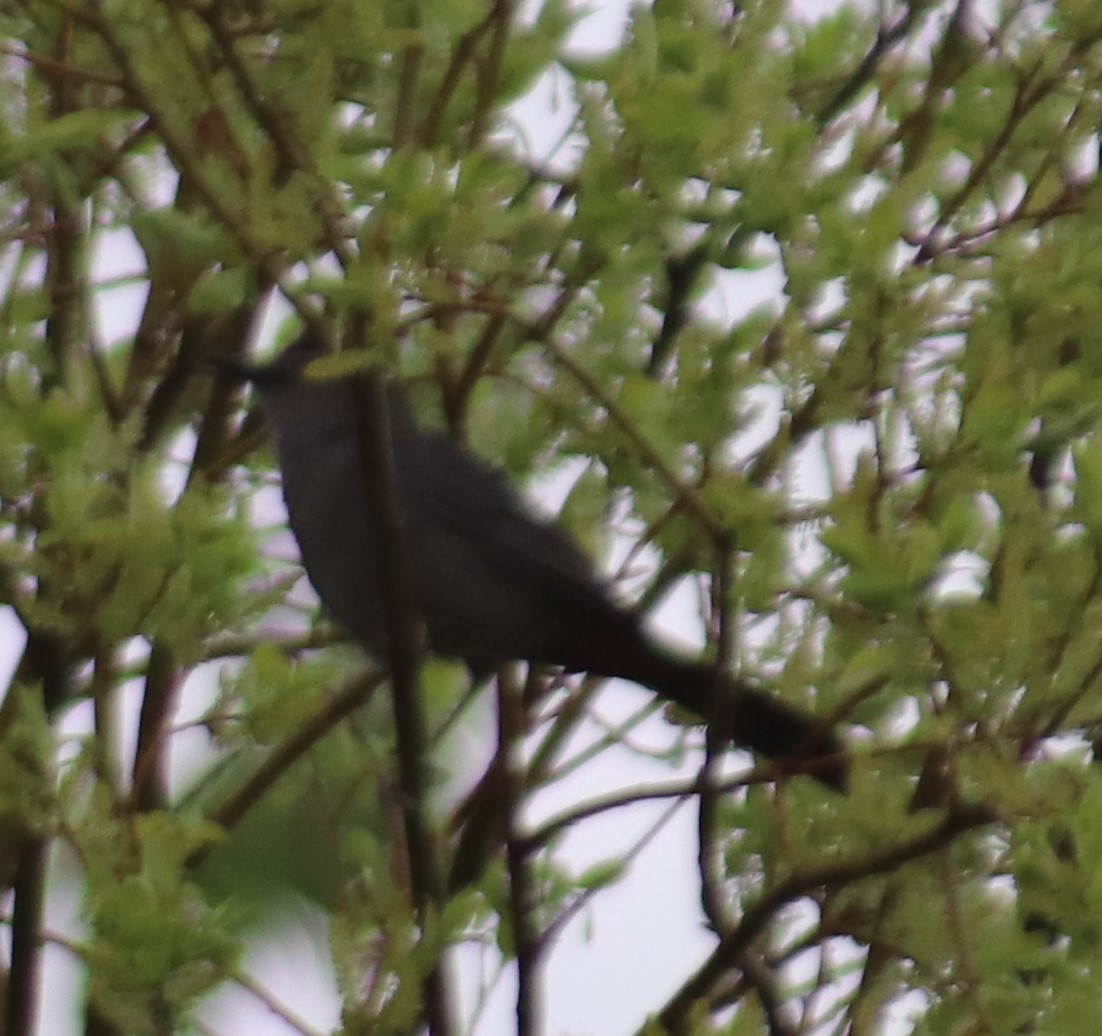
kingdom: Animalia
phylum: Chordata
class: Aves
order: Passeriformes
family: Mimidae
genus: Dumetella
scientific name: Dumetella carolinensis
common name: Gray catbird
